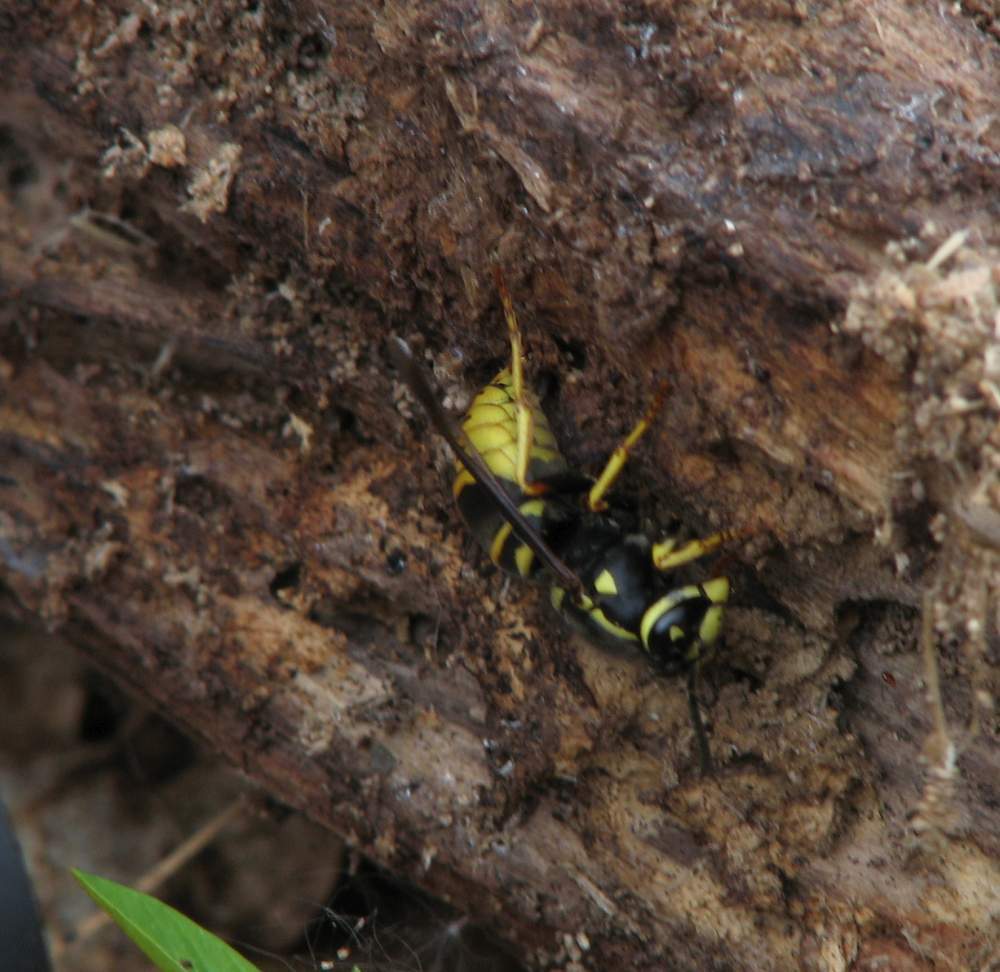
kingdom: Animalia
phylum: Arthropoda
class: Insecta
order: Hymenoptera
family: Vespidae
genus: Vespula
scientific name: Vespula vidua
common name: Widow yellowjacket
